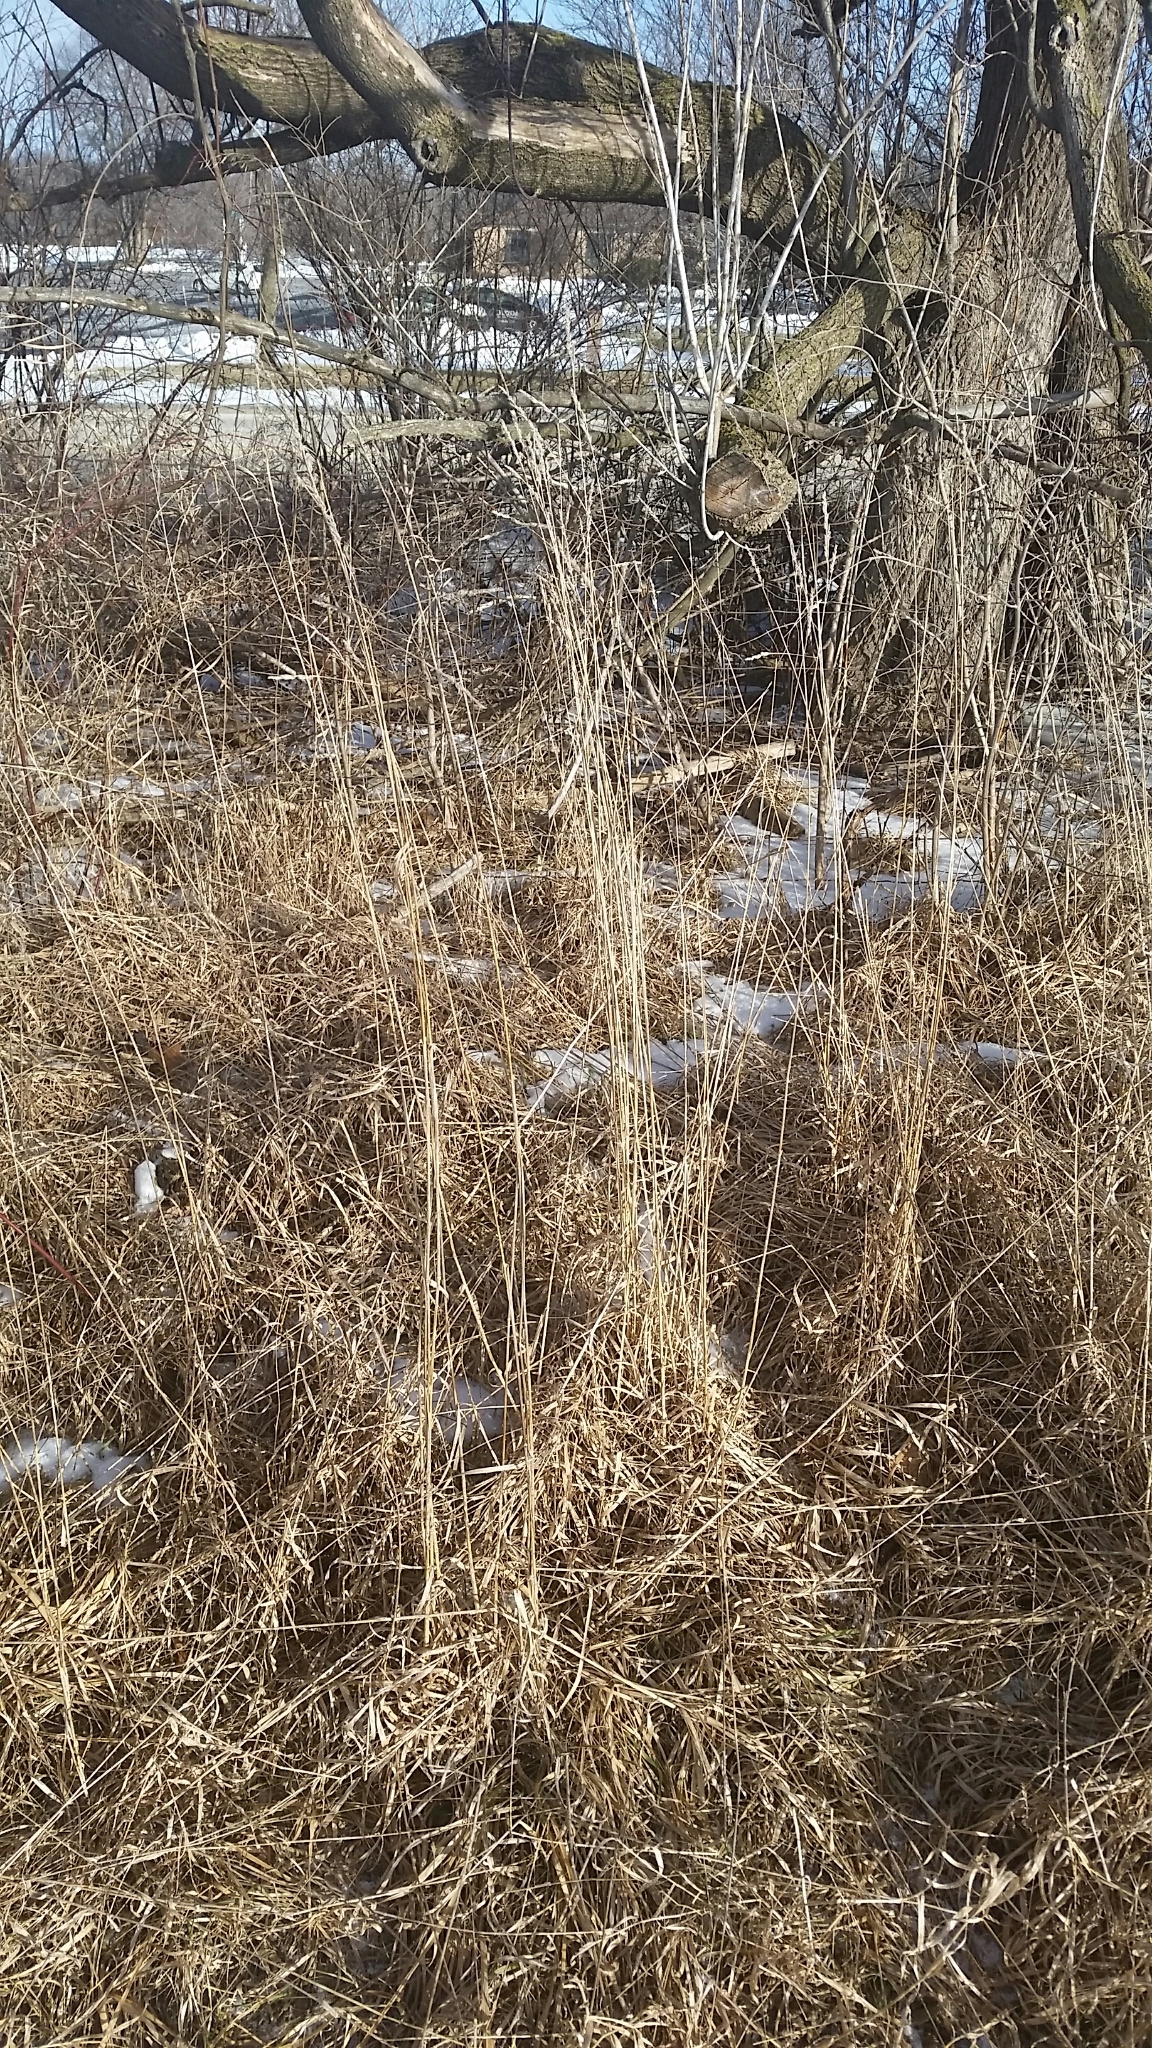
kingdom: Plantae
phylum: Tracheophyta
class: Liliopsida
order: Poales
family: Poaceae
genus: Dactylis
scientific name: Dactylis glomerata
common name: Orchardgrass
